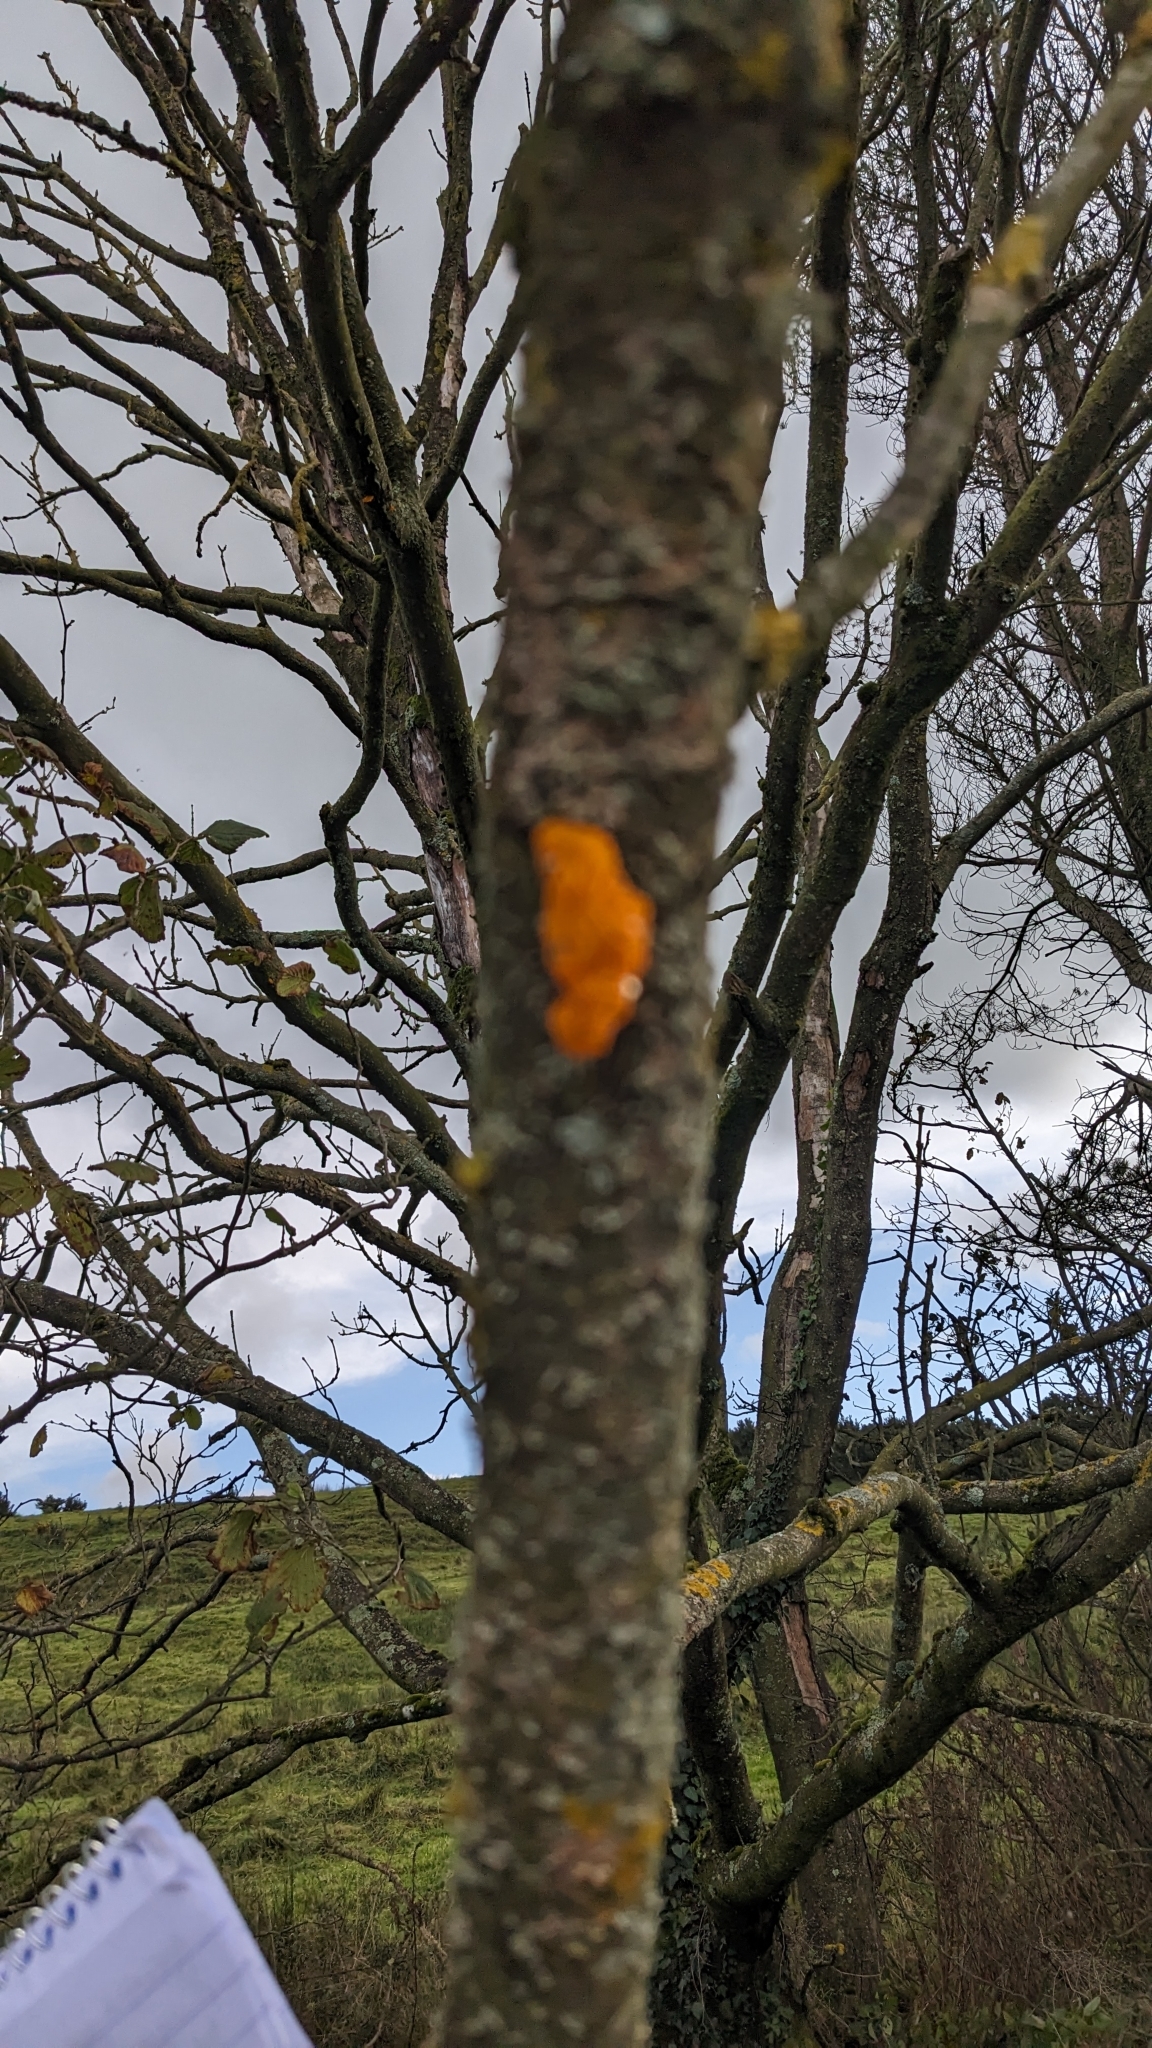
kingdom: Fungi
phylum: Basidiomycota
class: Tremellomycetes
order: Tremellales
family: Tremellaceae
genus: Tremella
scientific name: Tremella mesenterica
